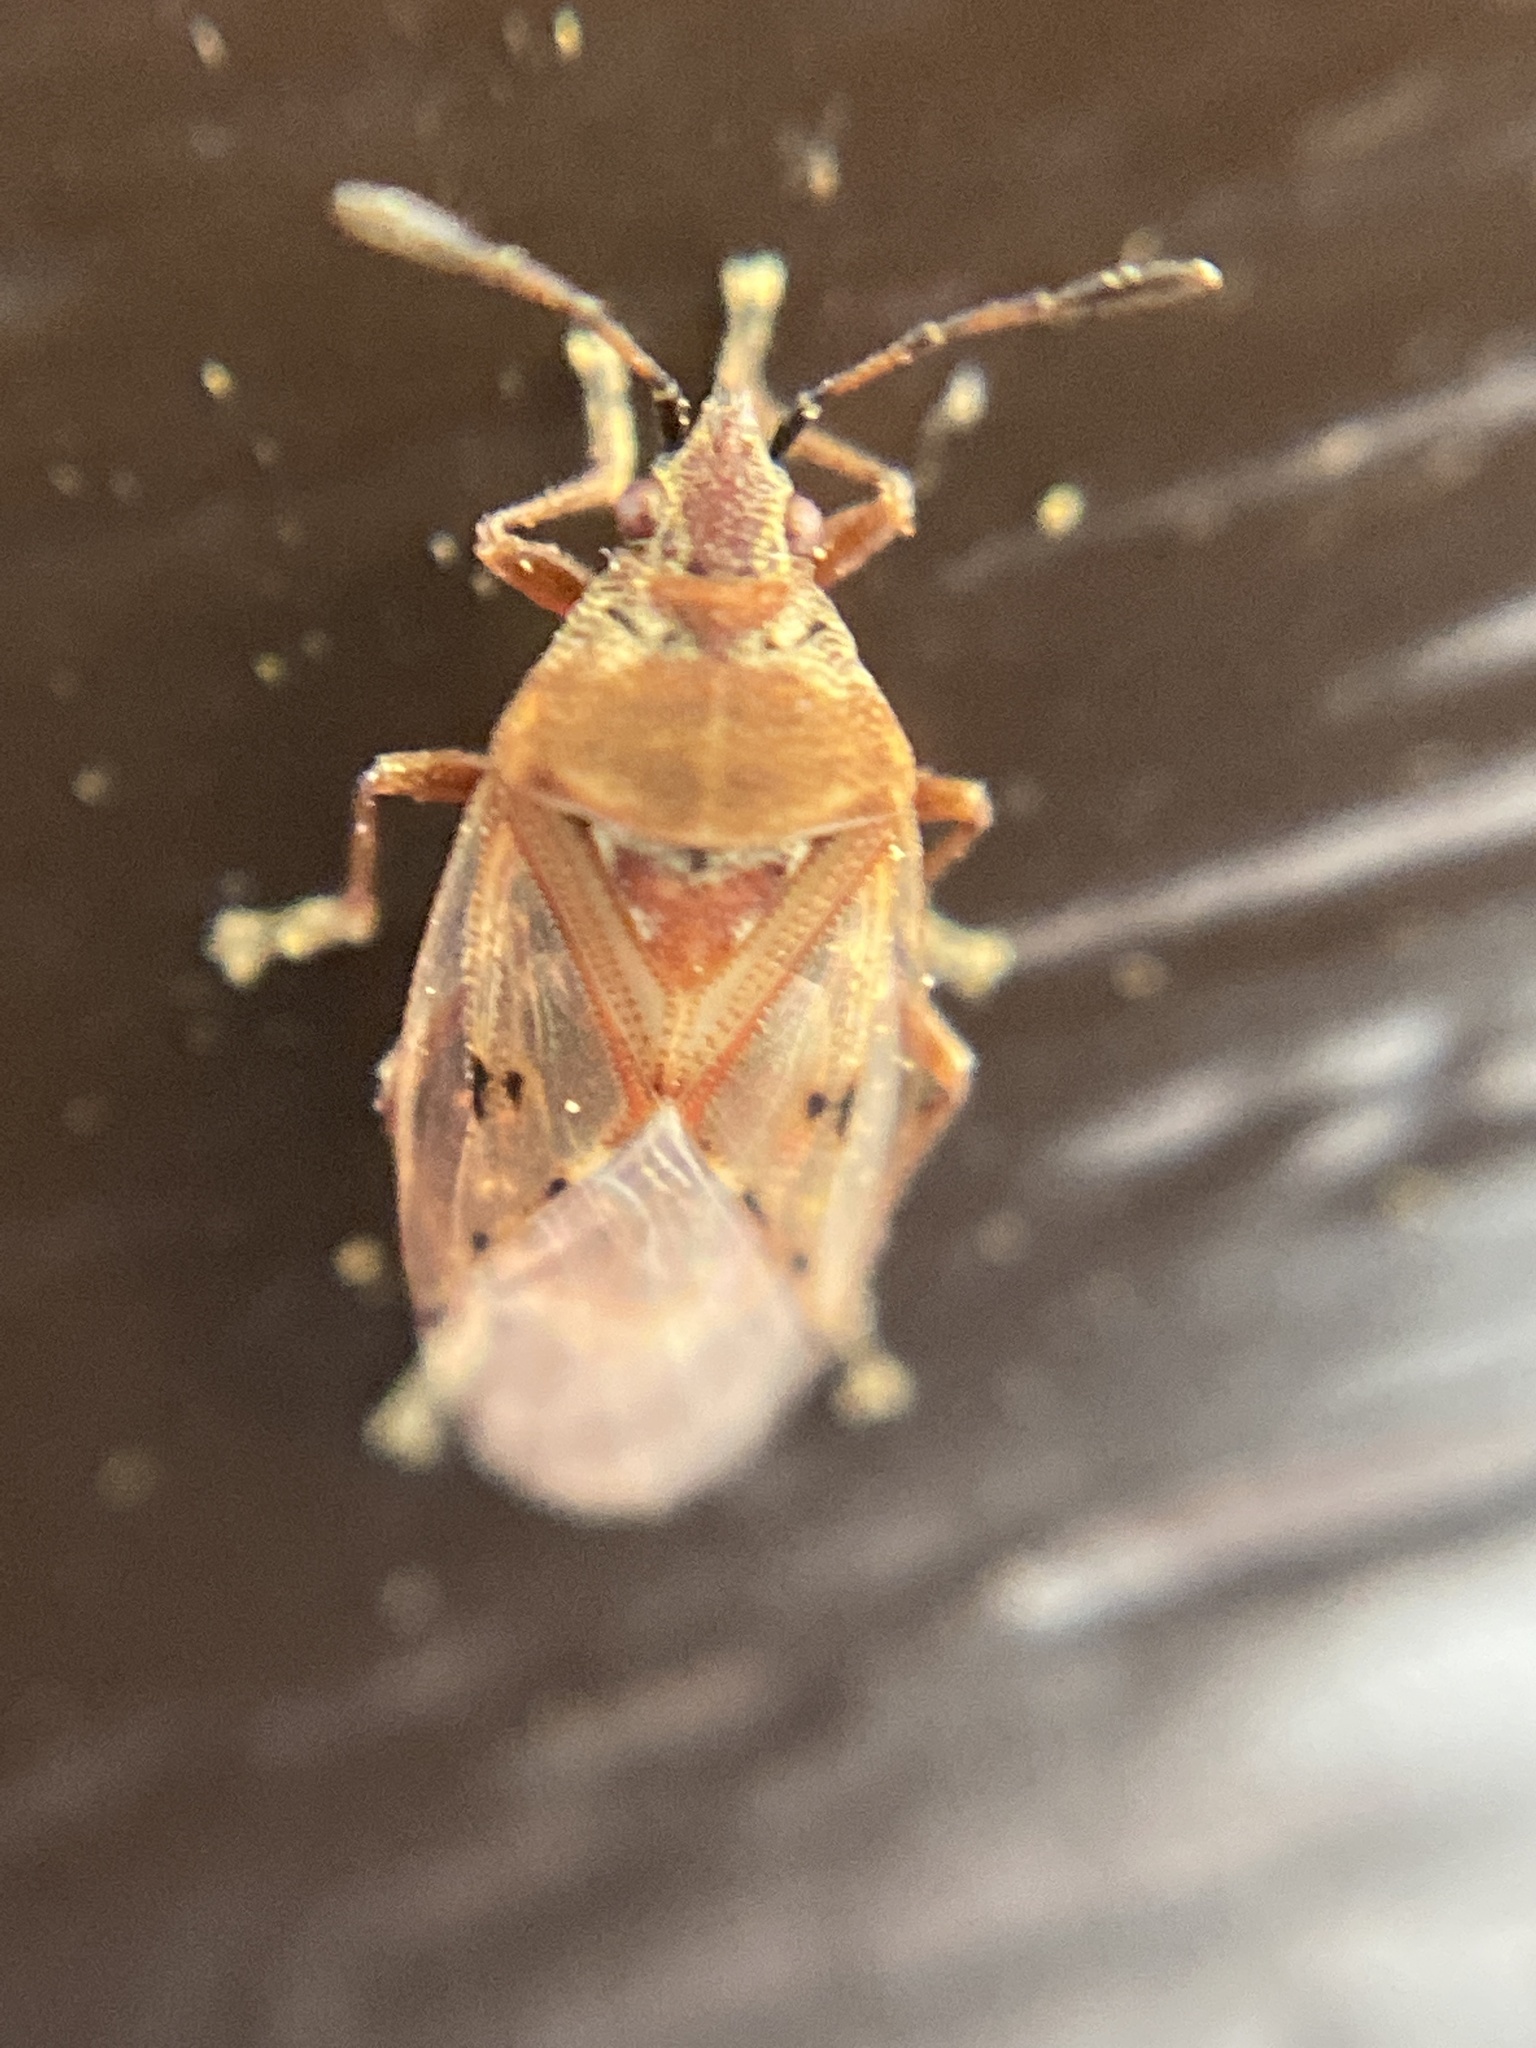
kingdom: Animalia
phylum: Arthropoda
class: Insecta
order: Hemiptera
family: Lygaeidae
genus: Kleidocerys
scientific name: Kleidocerys resedae
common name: Birch catkin bug
